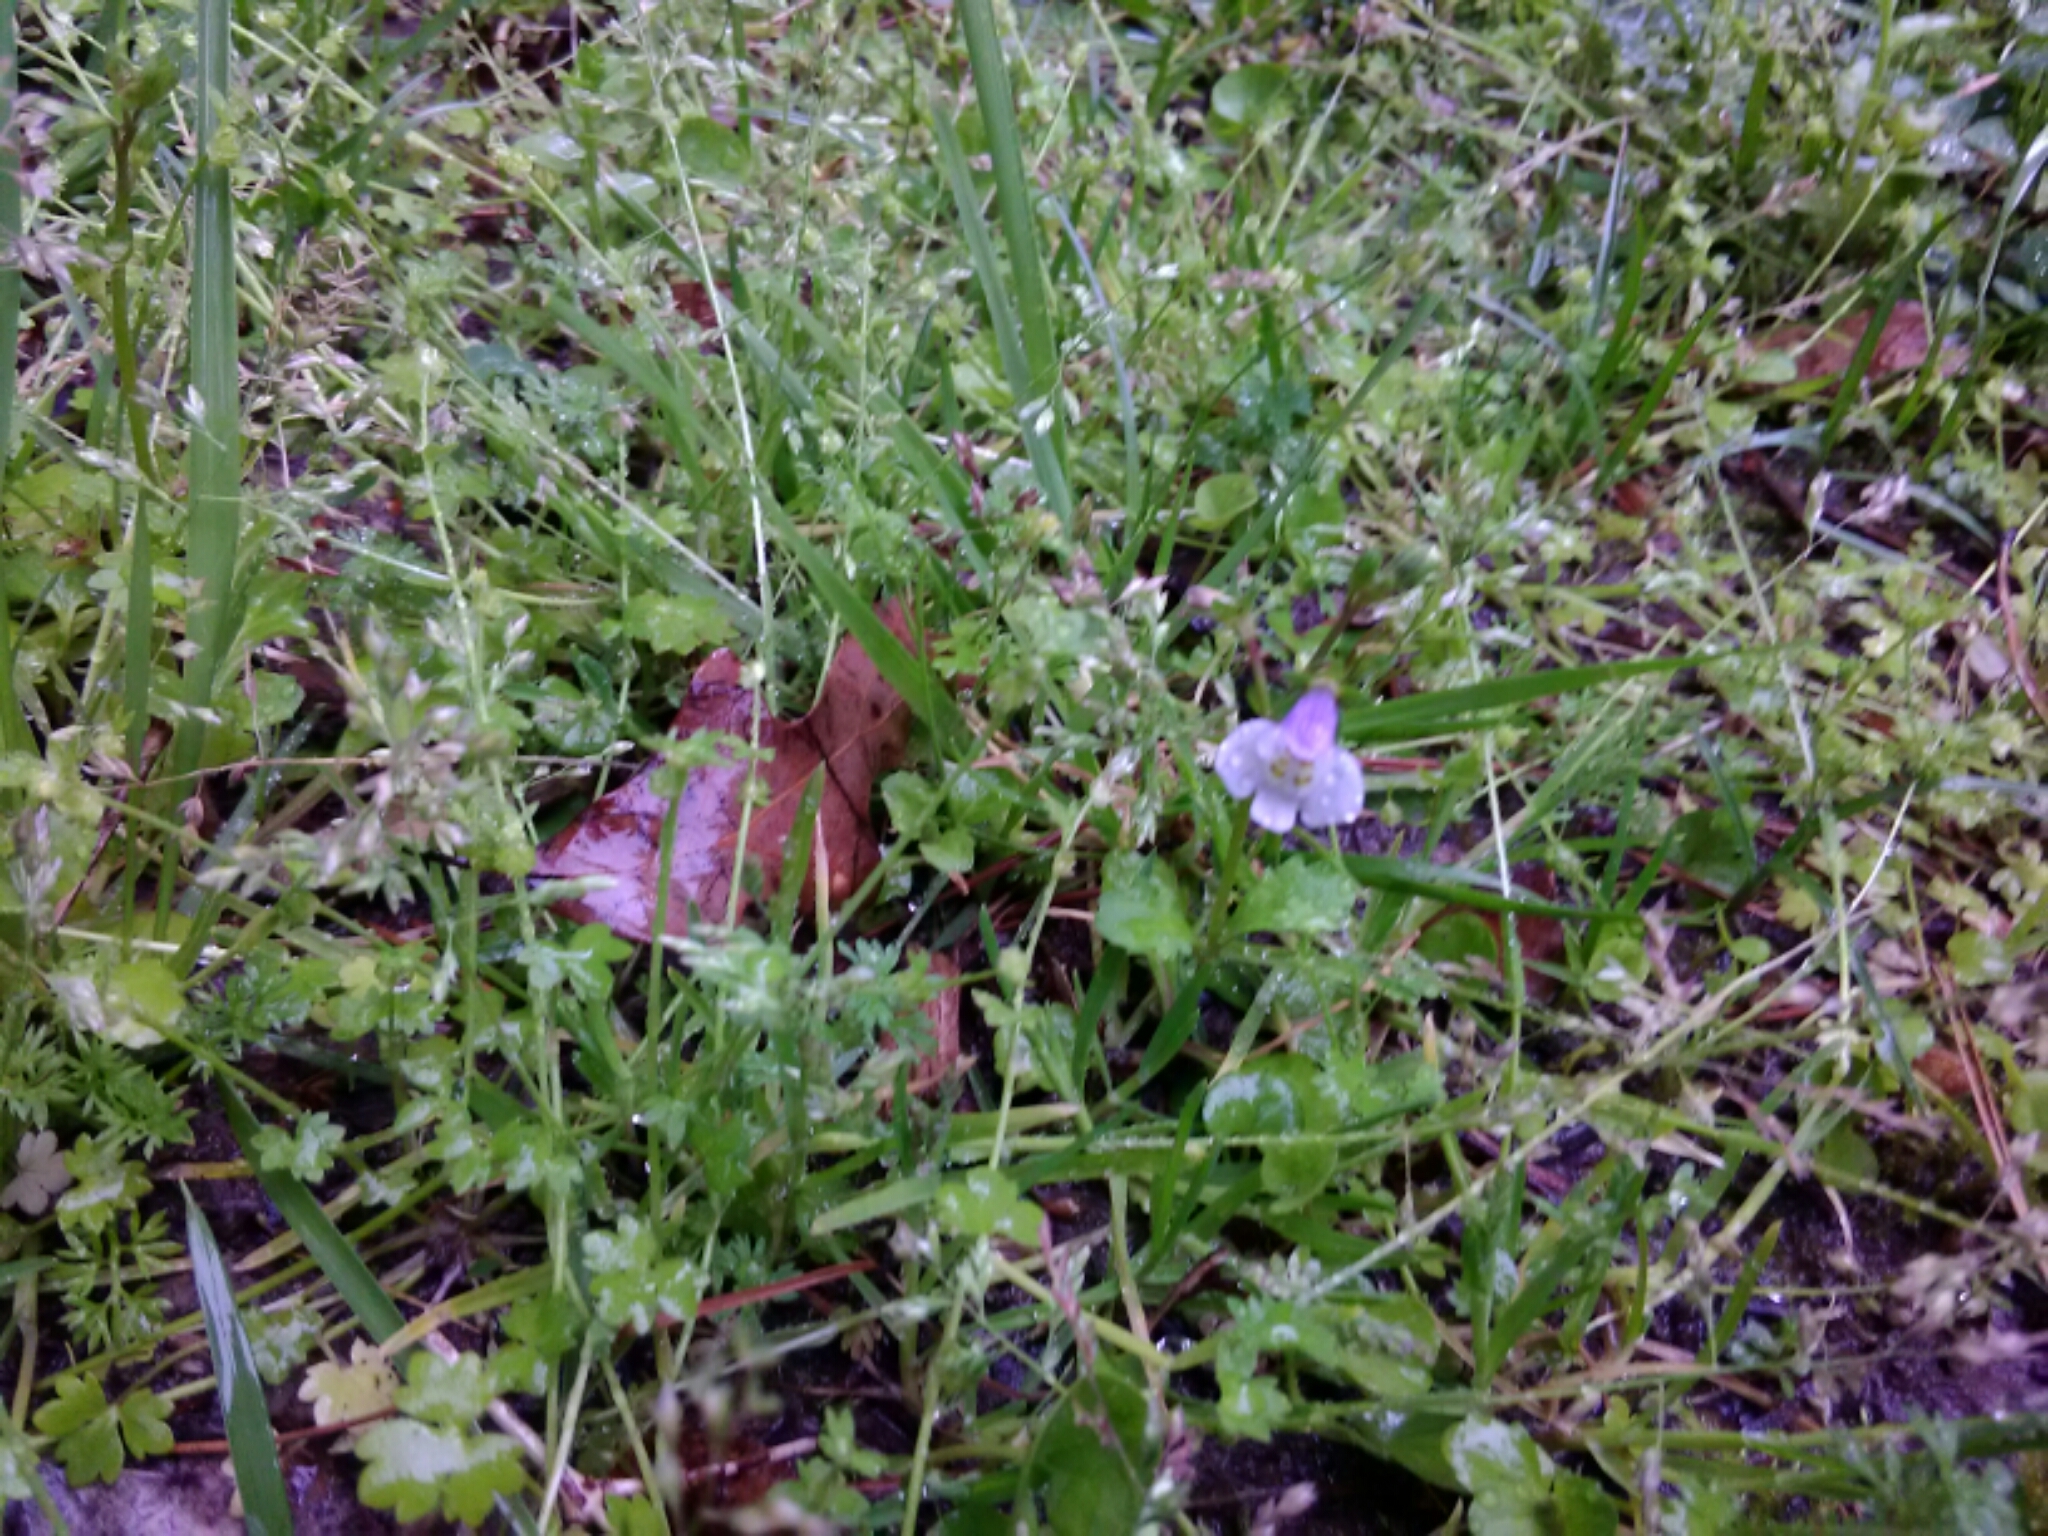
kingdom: Plantae
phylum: Tracheophyta
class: Magnoliopsida
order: Lamiales
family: Mazaceae
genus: Mazus
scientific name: Mazus pumilus
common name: Japanese mazus
